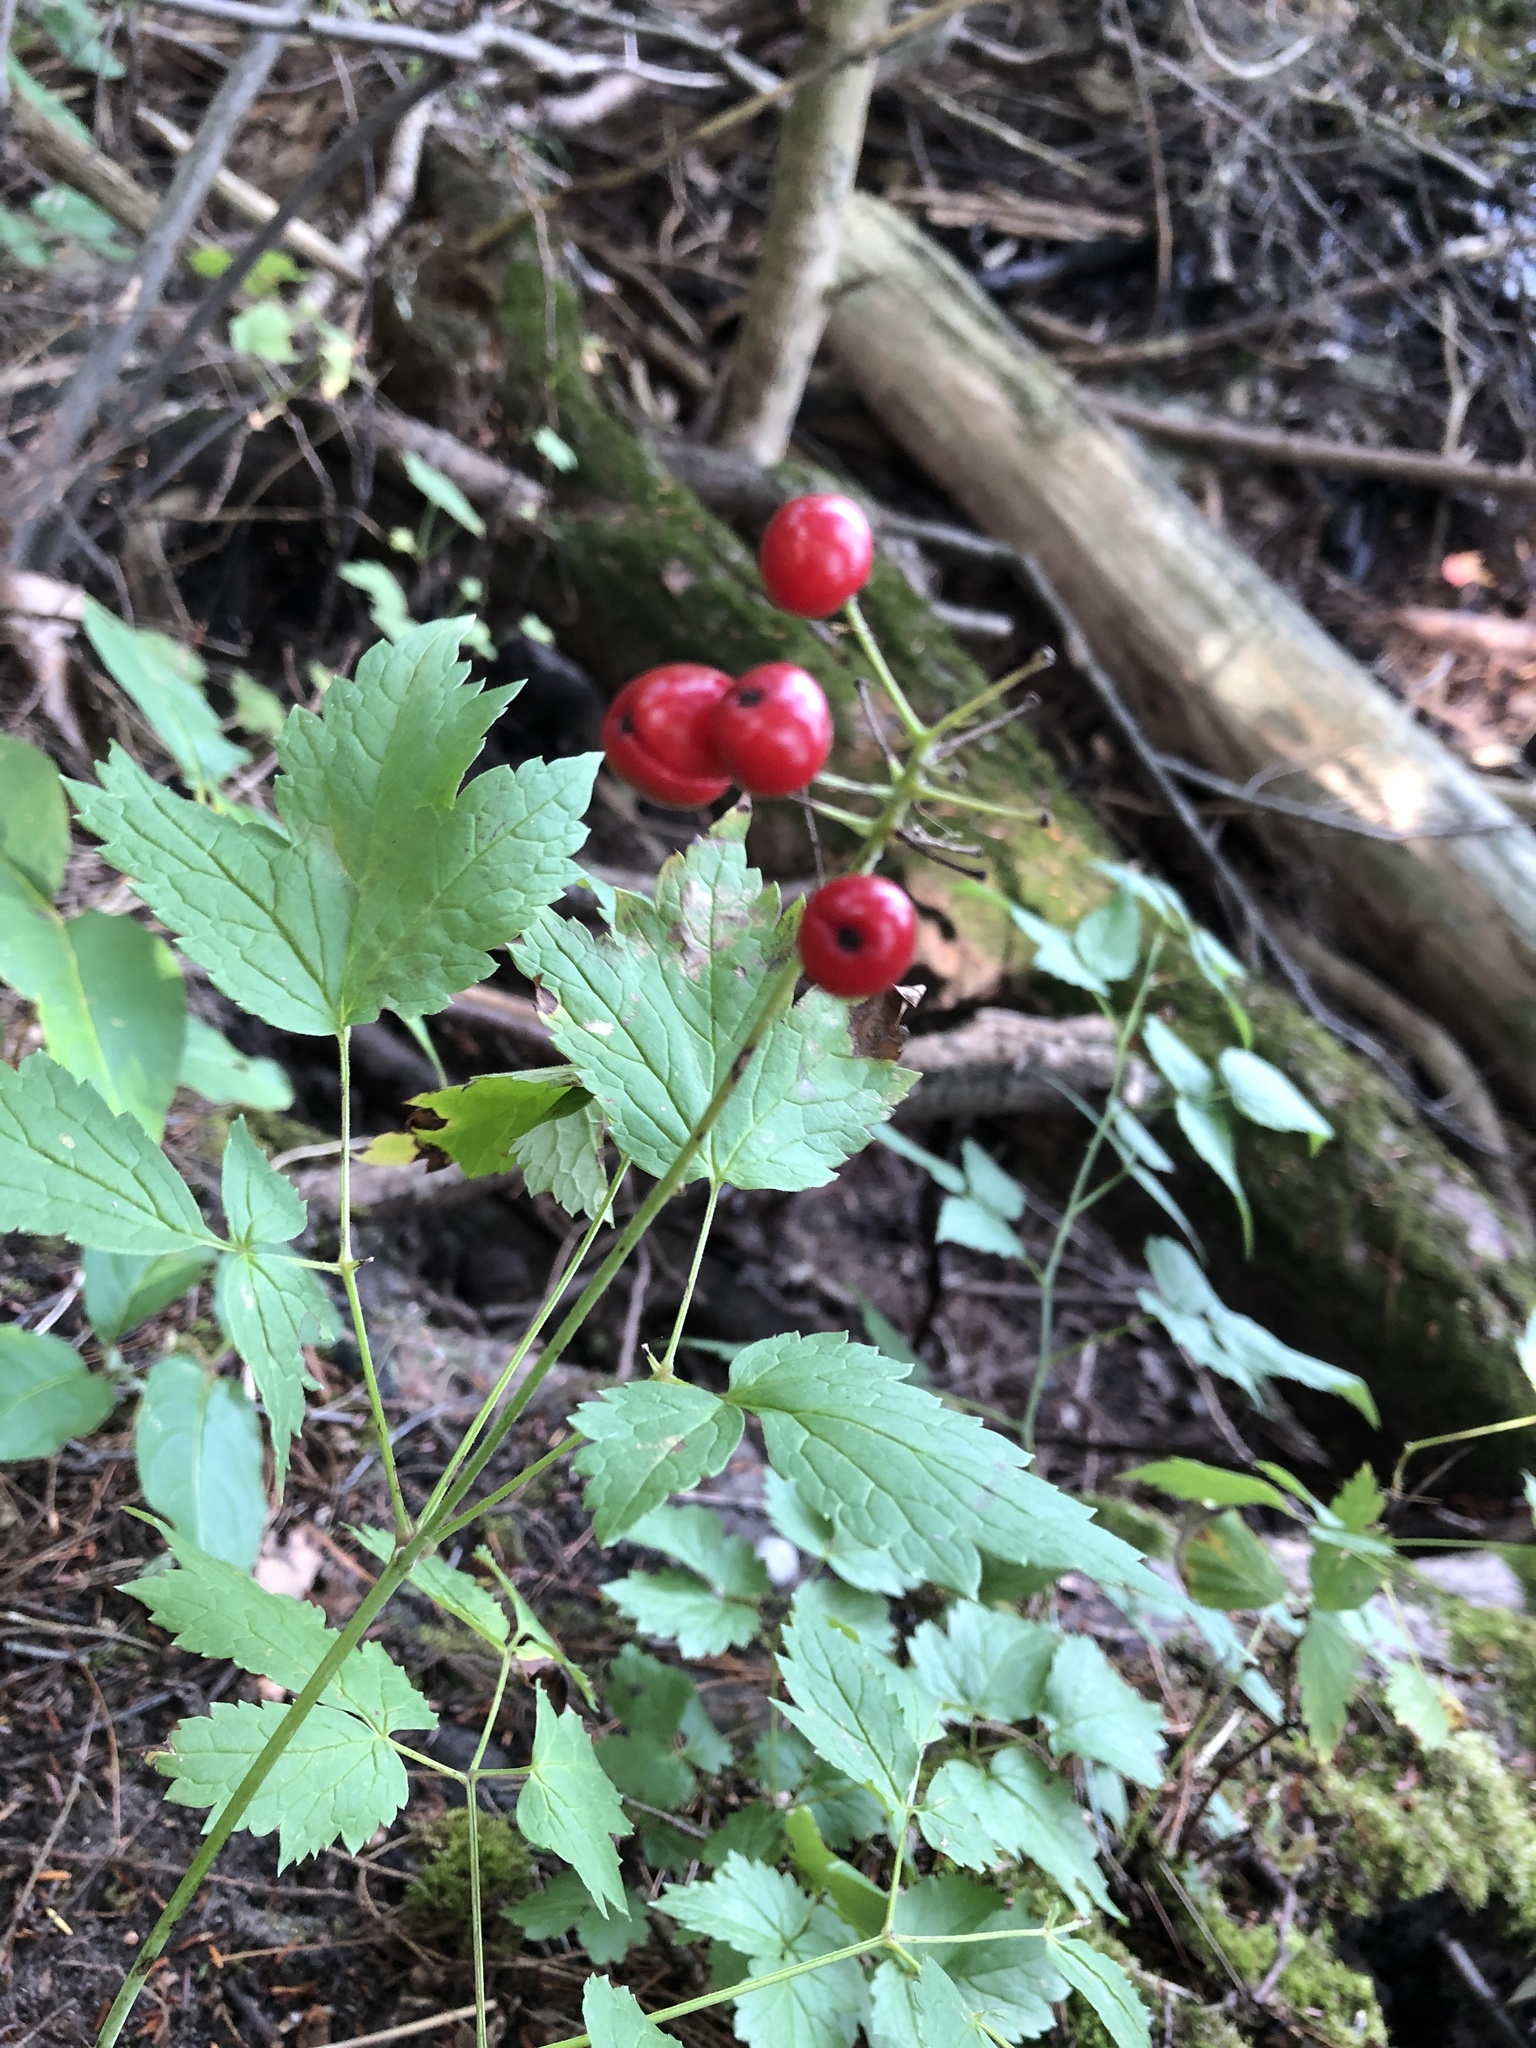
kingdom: Plantae
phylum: Tracheophyta
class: Magnoliopsida
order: Ranunculales
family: Ranunculaceae
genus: Actaea
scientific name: Actaea rubra
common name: Red baneberry
